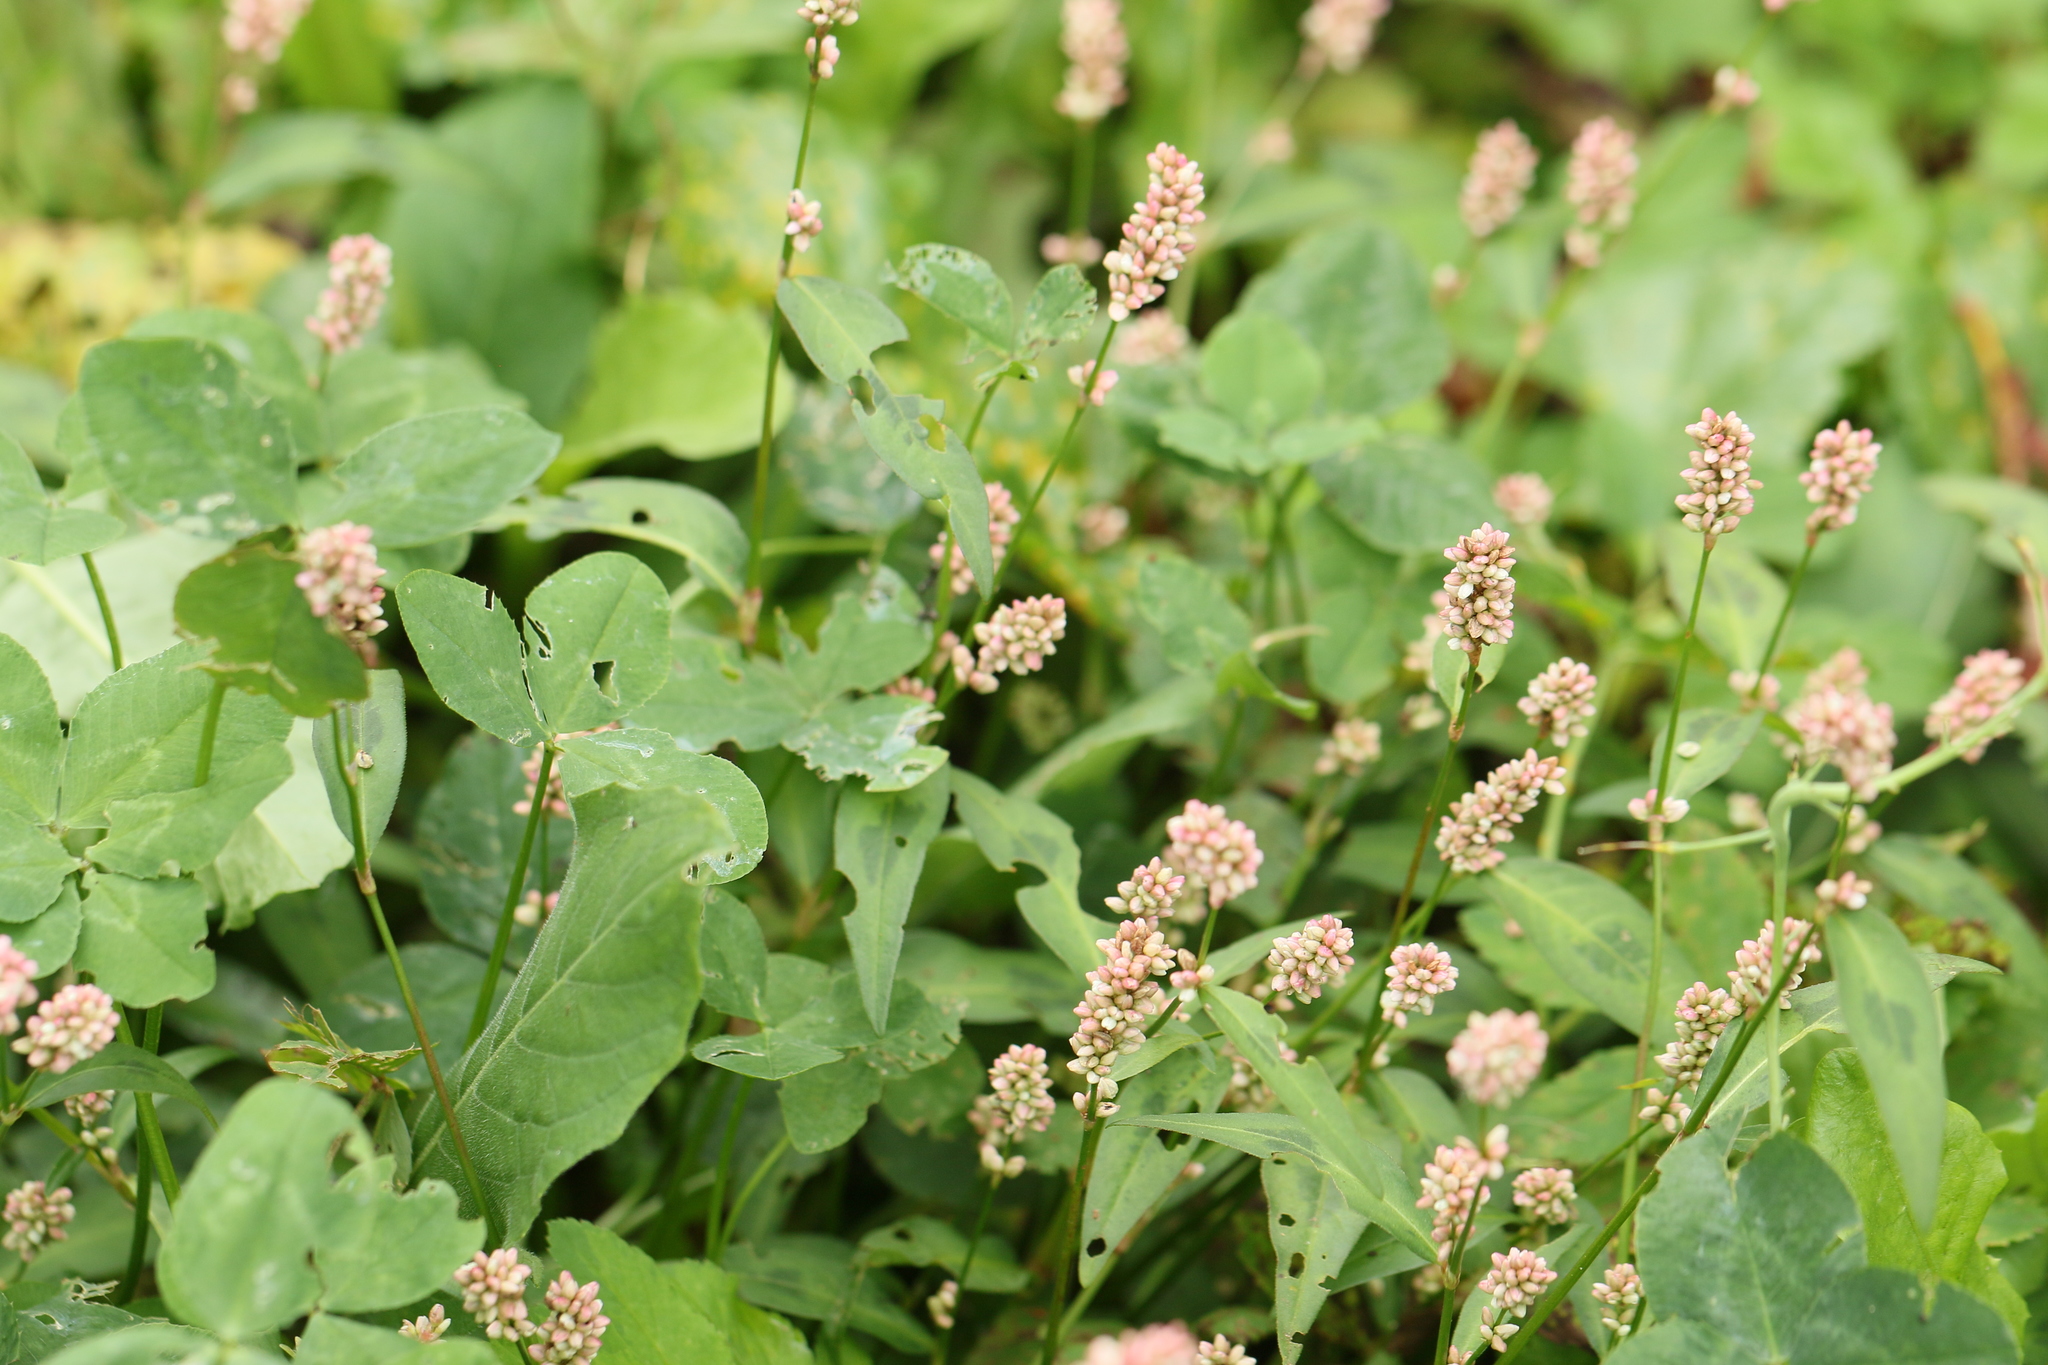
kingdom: Plantae
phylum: Tracheophyta
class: Magnoliopsida
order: Caryophyllales
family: Polygonaceae
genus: Persicaria
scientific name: Persicaria maculosa
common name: Redshank
